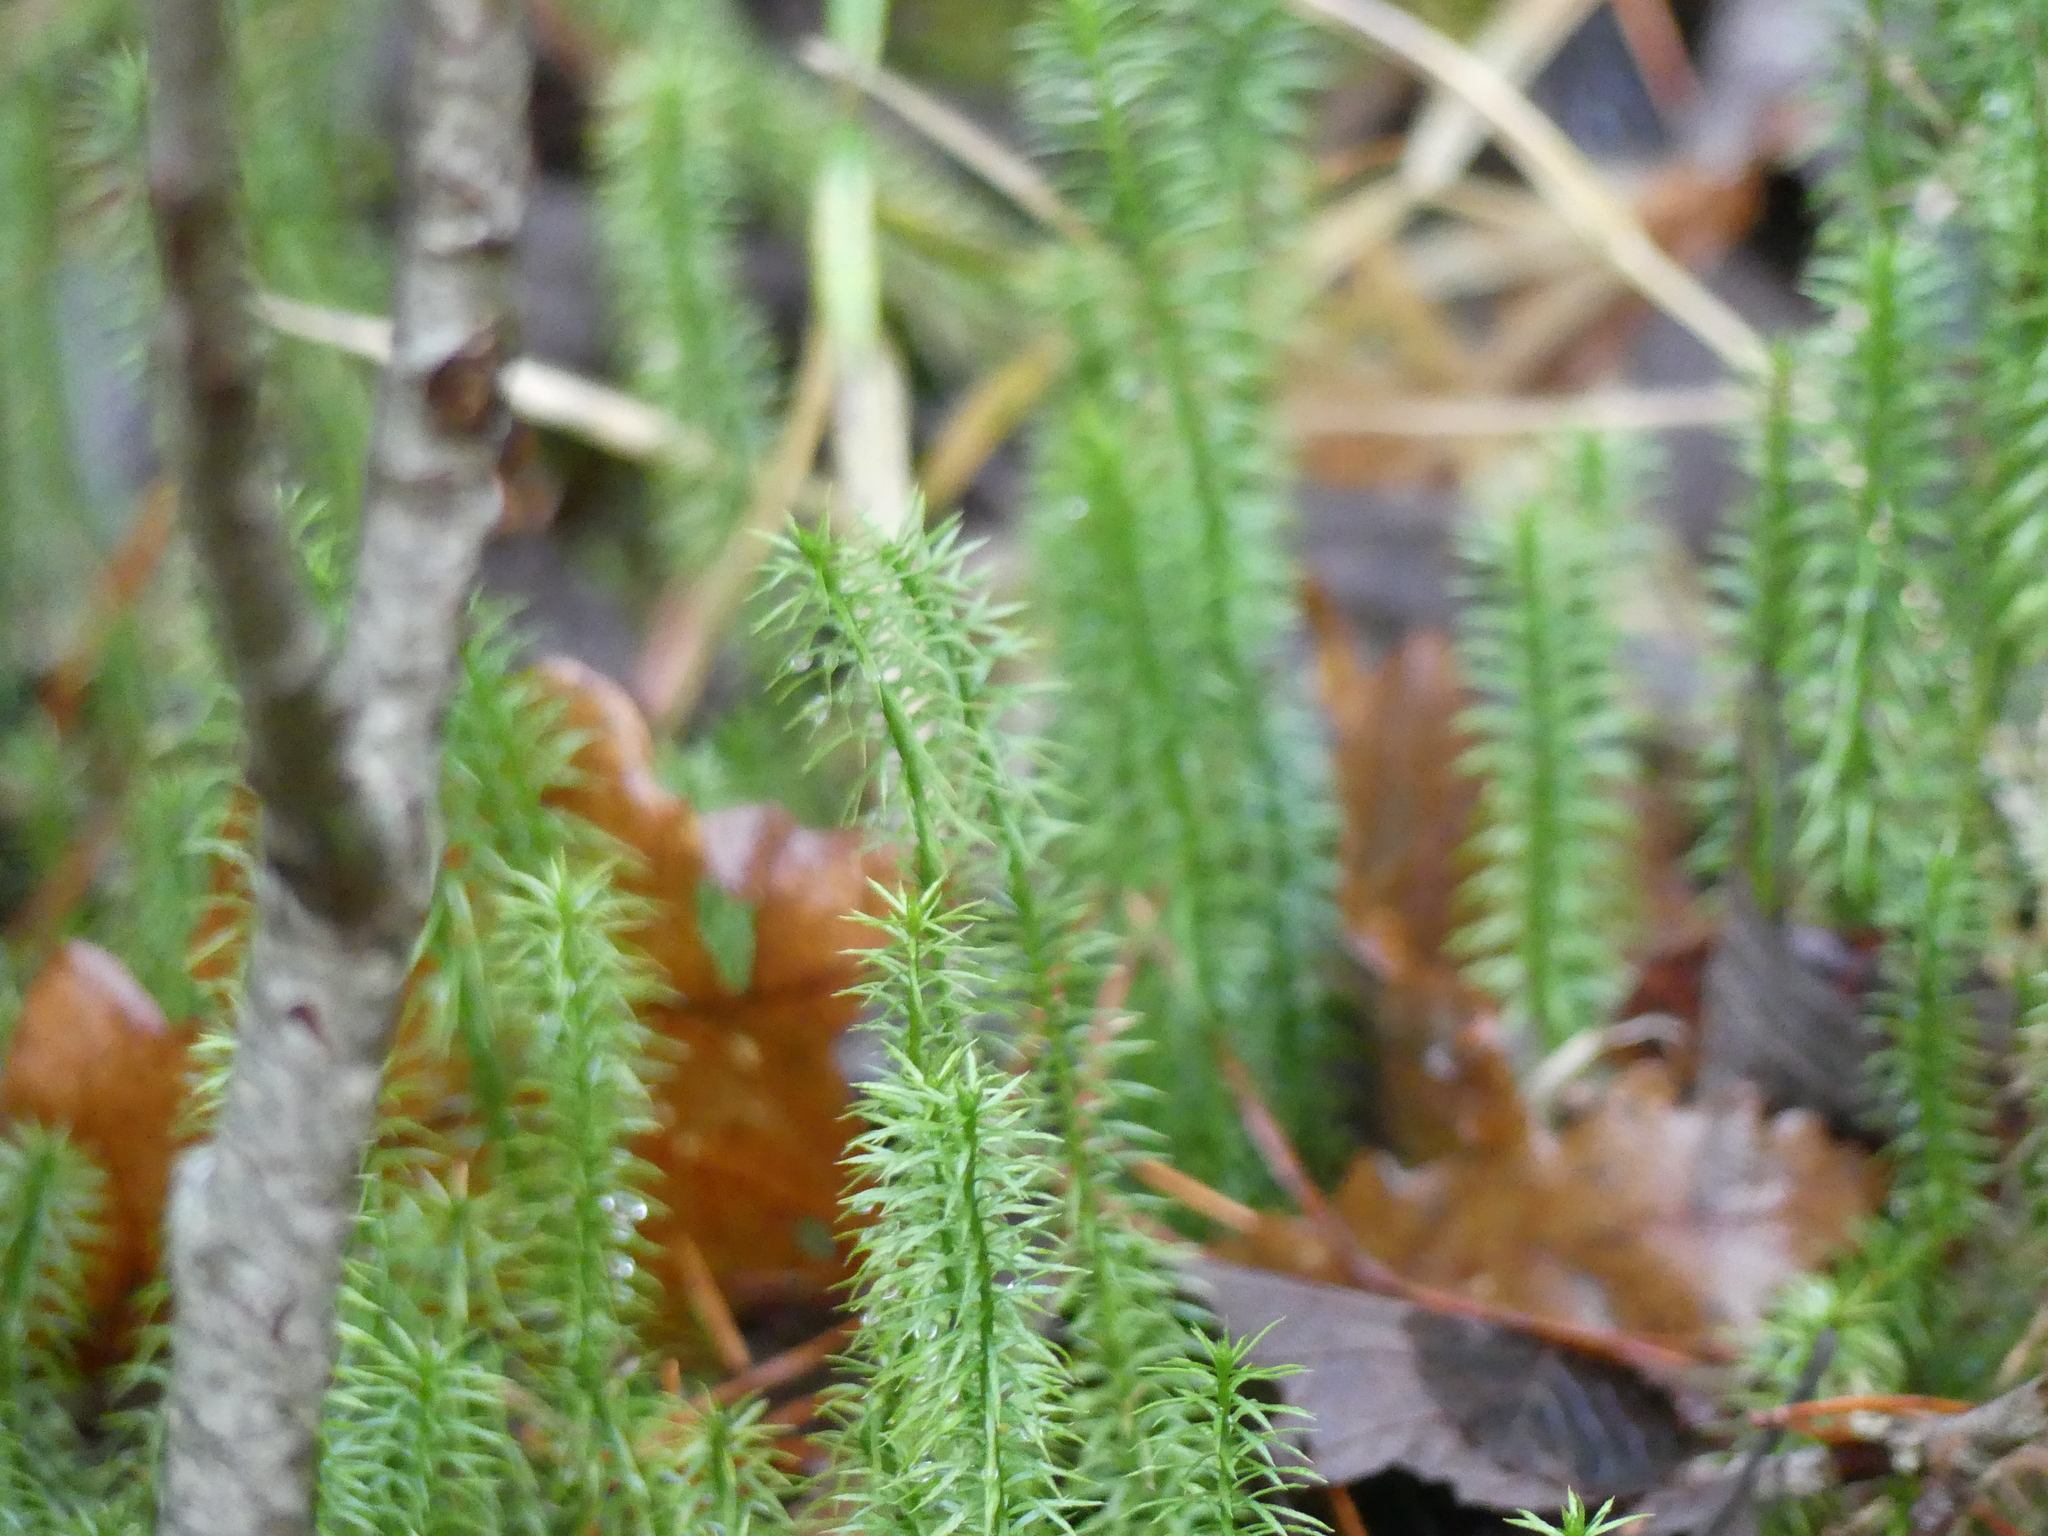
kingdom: Plantae
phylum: Tracheophyta
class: Lycopodiopsida
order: Lycopodiales
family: Lycopodiaceae
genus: Spinulum
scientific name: Spinulum annotinum
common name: Interrupted club-moss
